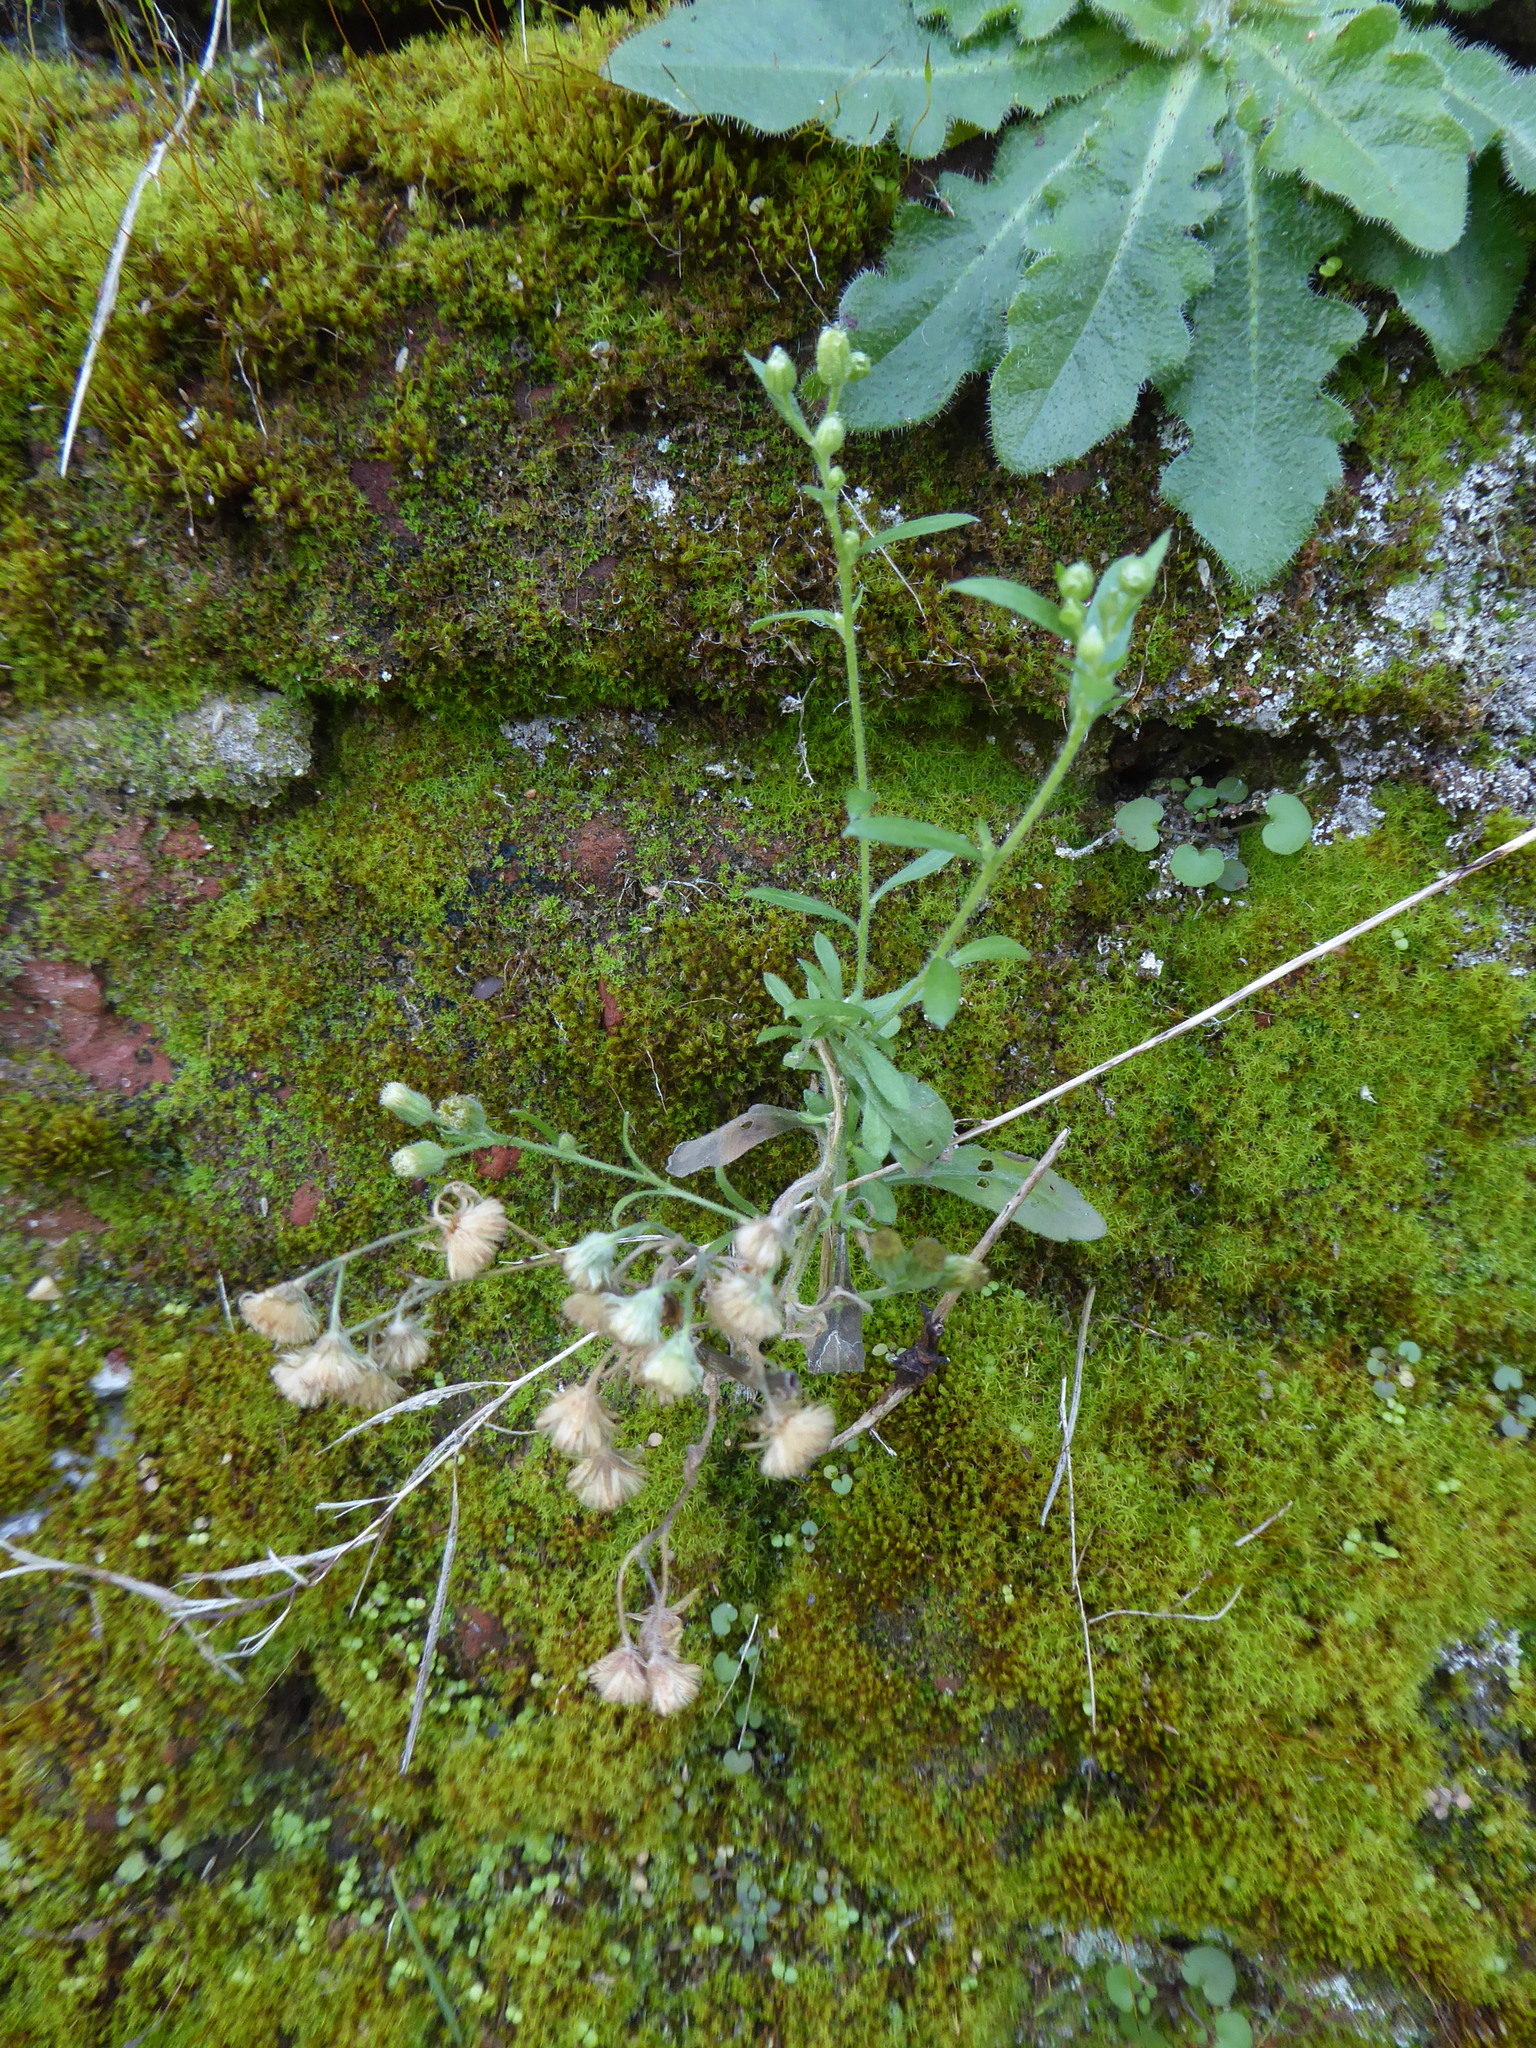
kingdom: Plantae
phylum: Tracheophyta
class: Magnoliopsida
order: Asterales
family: Asteraceae
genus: Erigeron
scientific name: Erigeron sumatrensis
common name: Daisy
